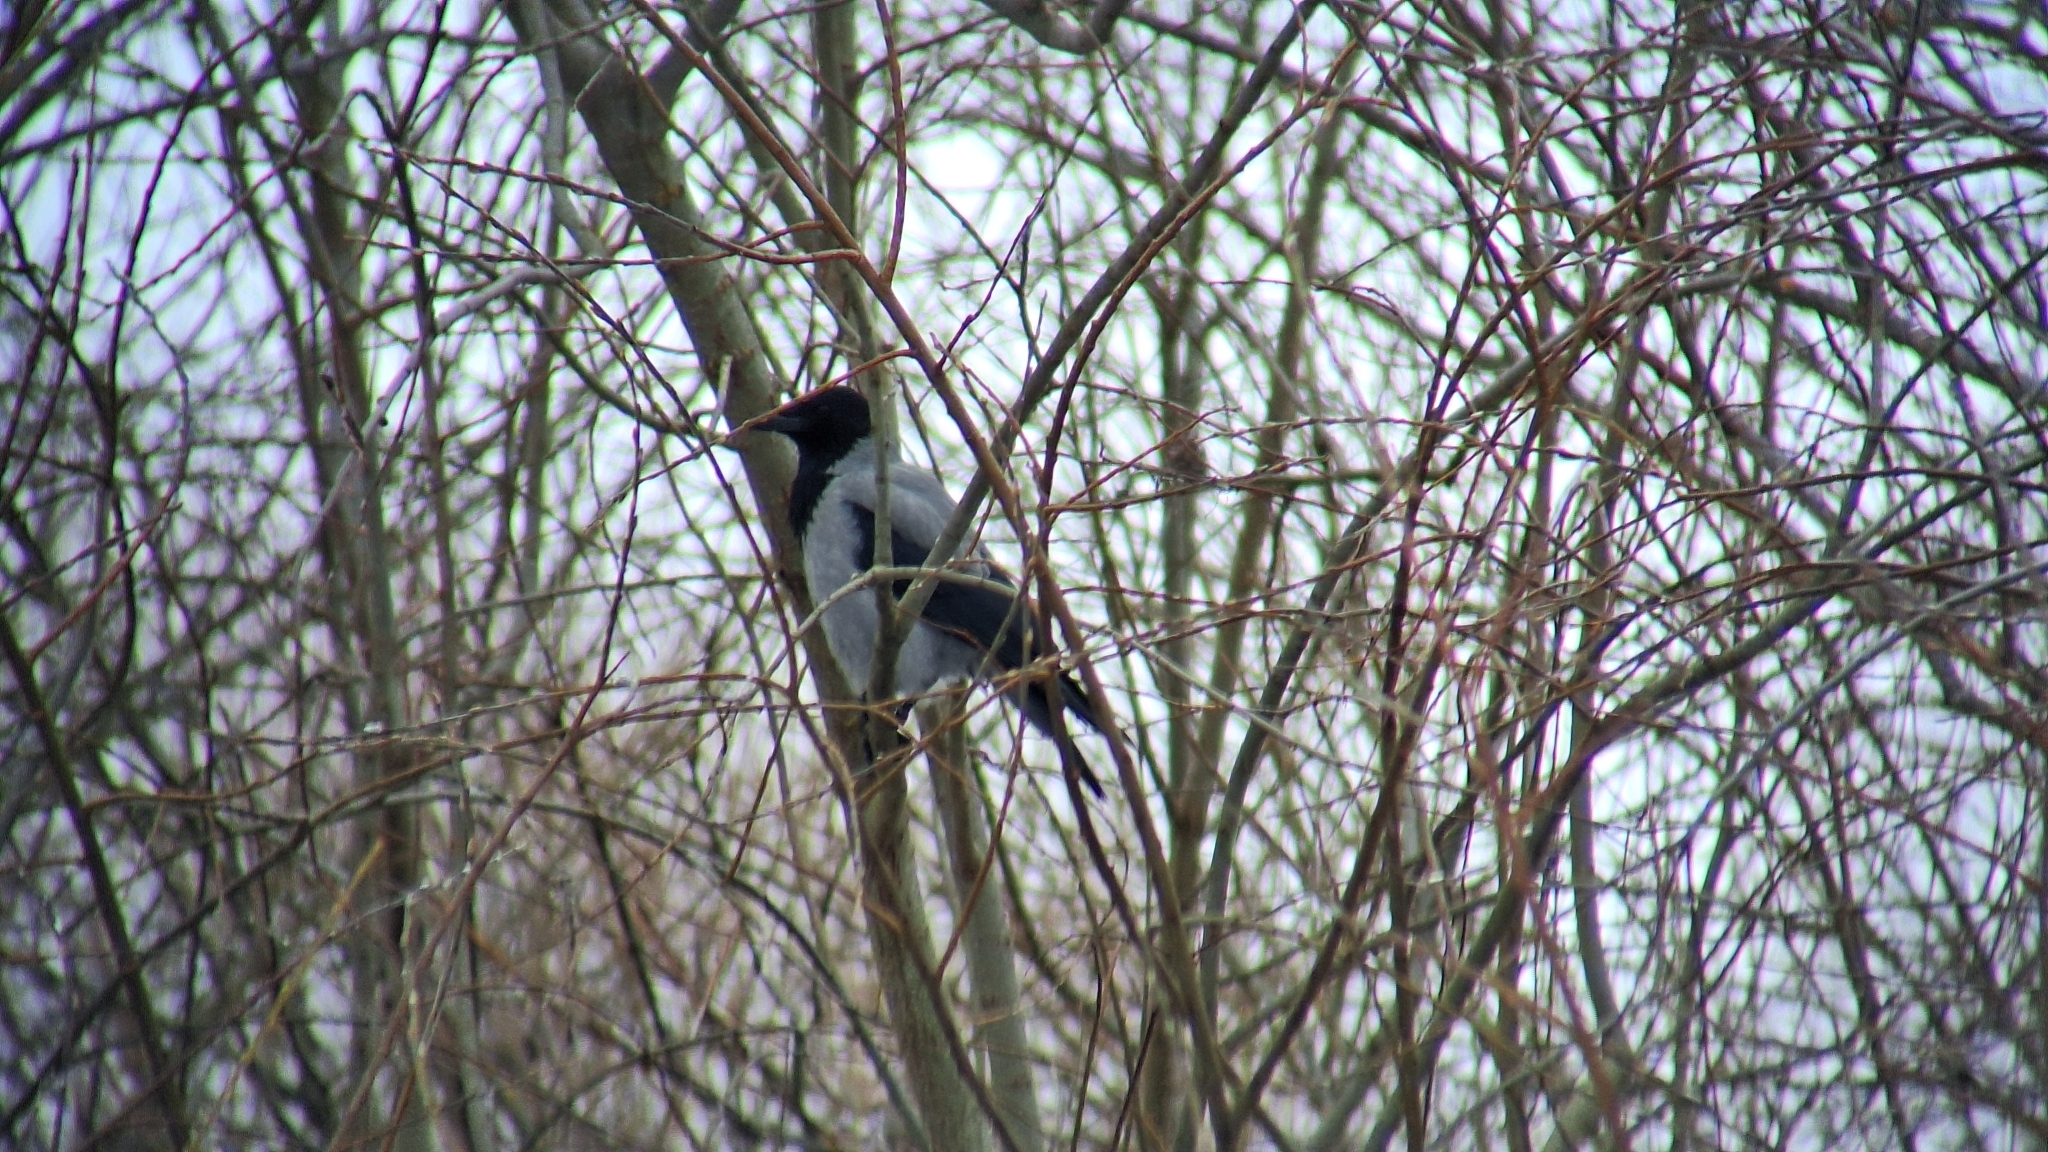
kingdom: Animalia
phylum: Chordata
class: Aves
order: Passeriformes
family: Corvidae
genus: Corvus
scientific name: Corvus cornix
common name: Hooded crow
